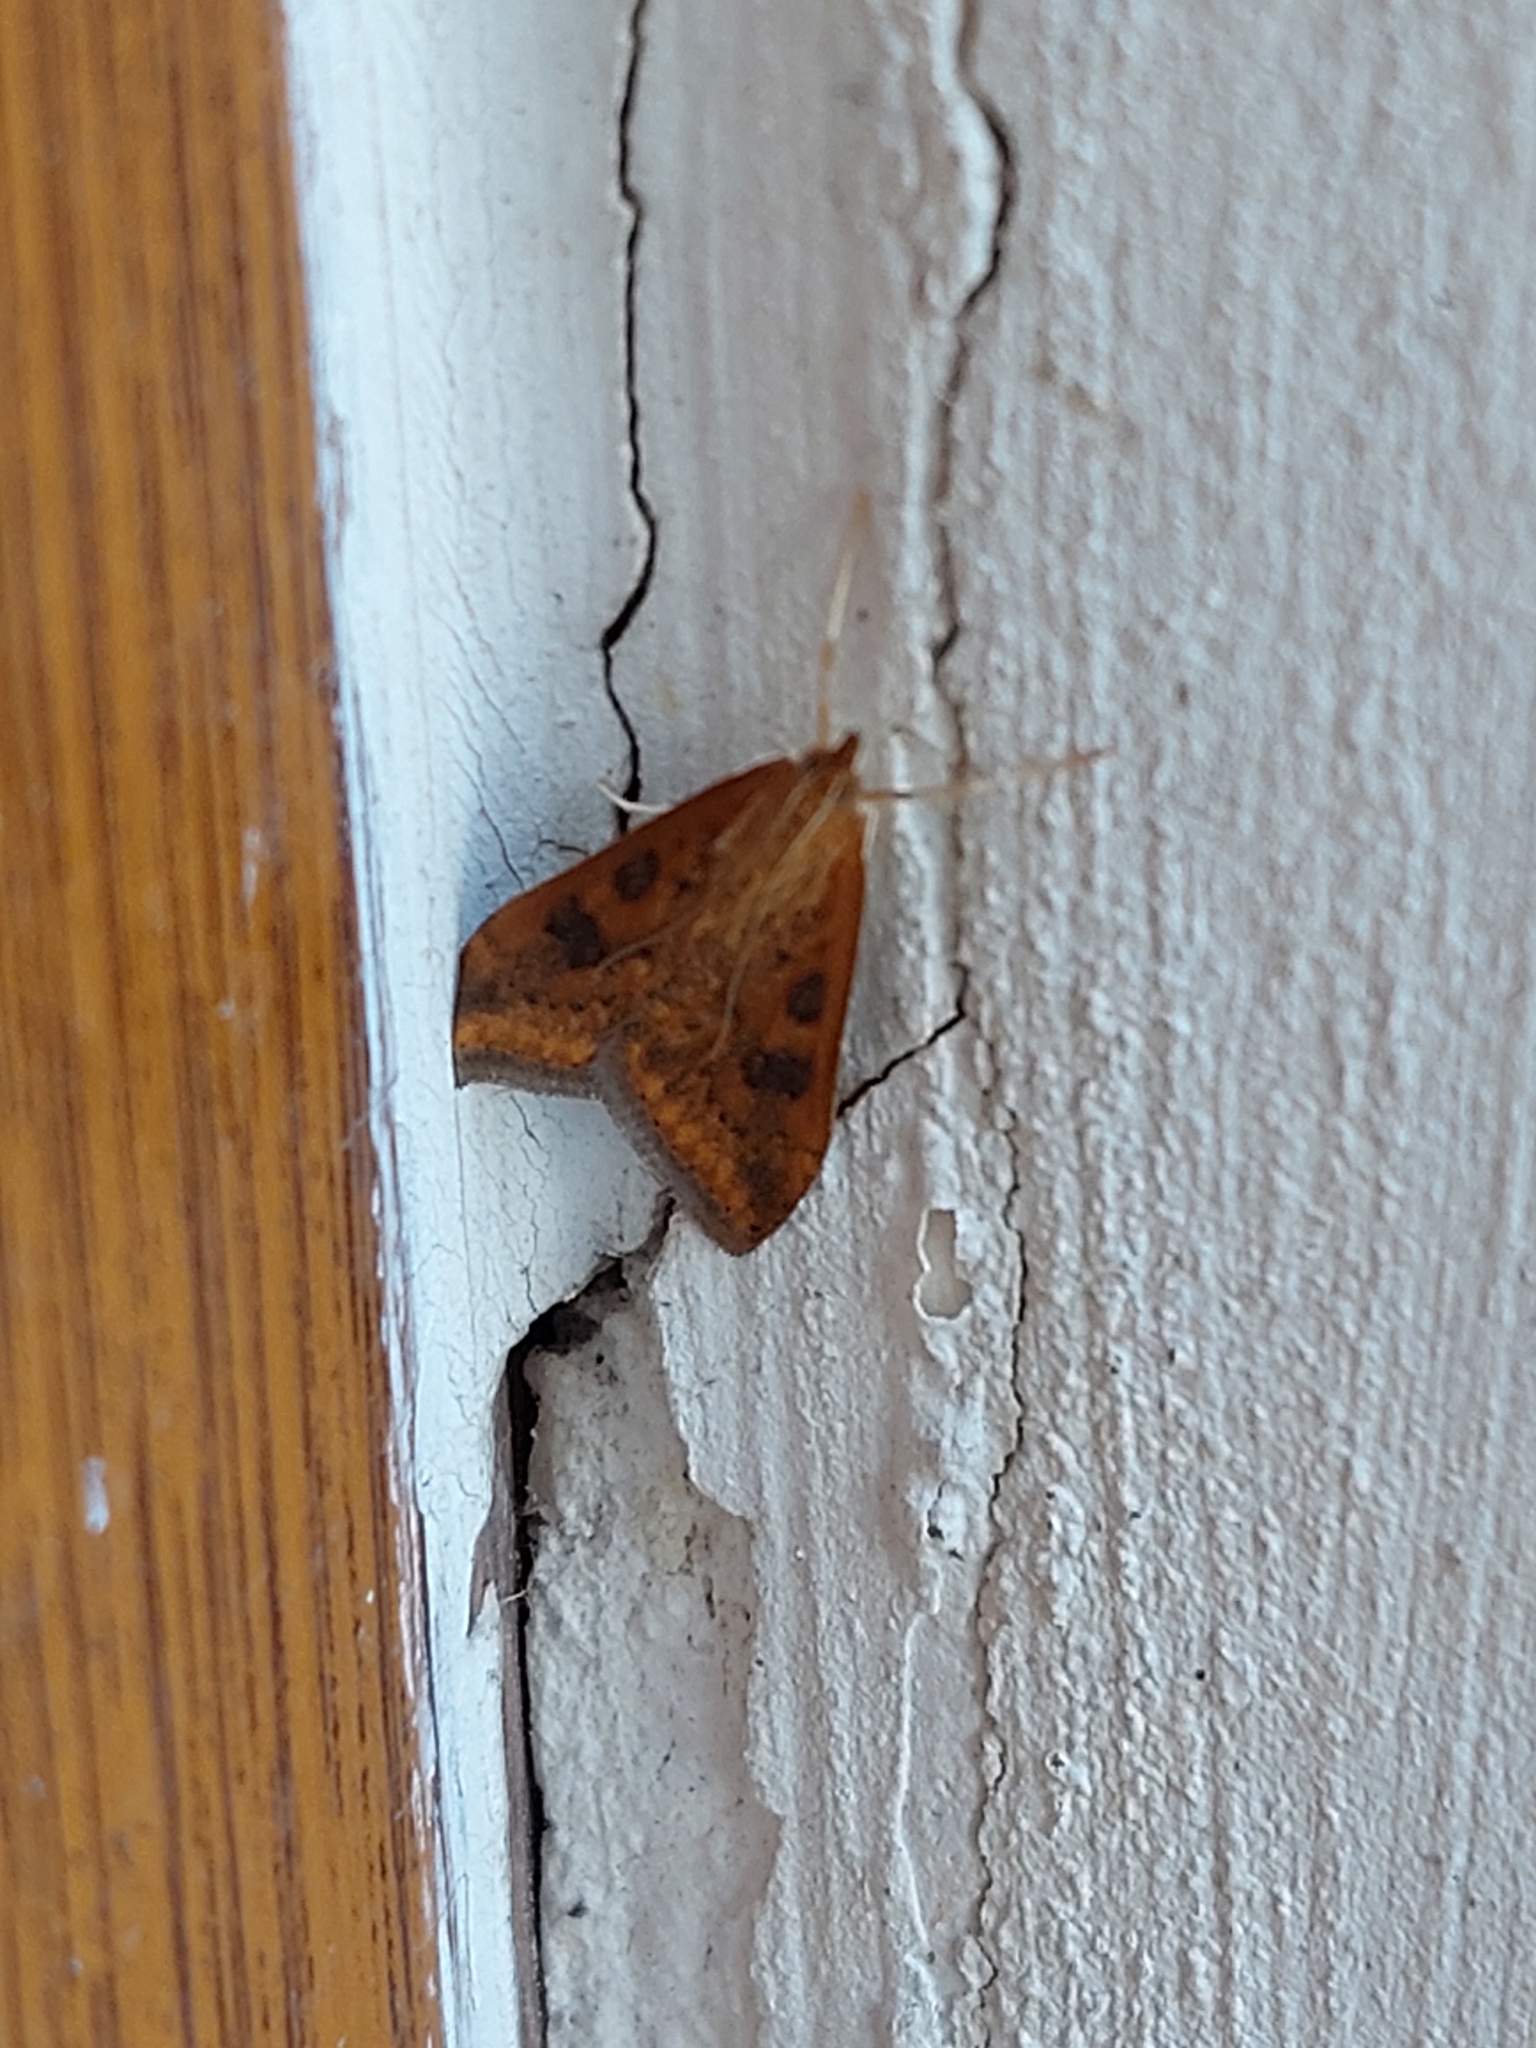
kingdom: Animalia
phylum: Arthropoda
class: Insecta
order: Lepidoptera
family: Crambidae
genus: Udea
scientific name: Udea ferrugalis
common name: Rusty dot
